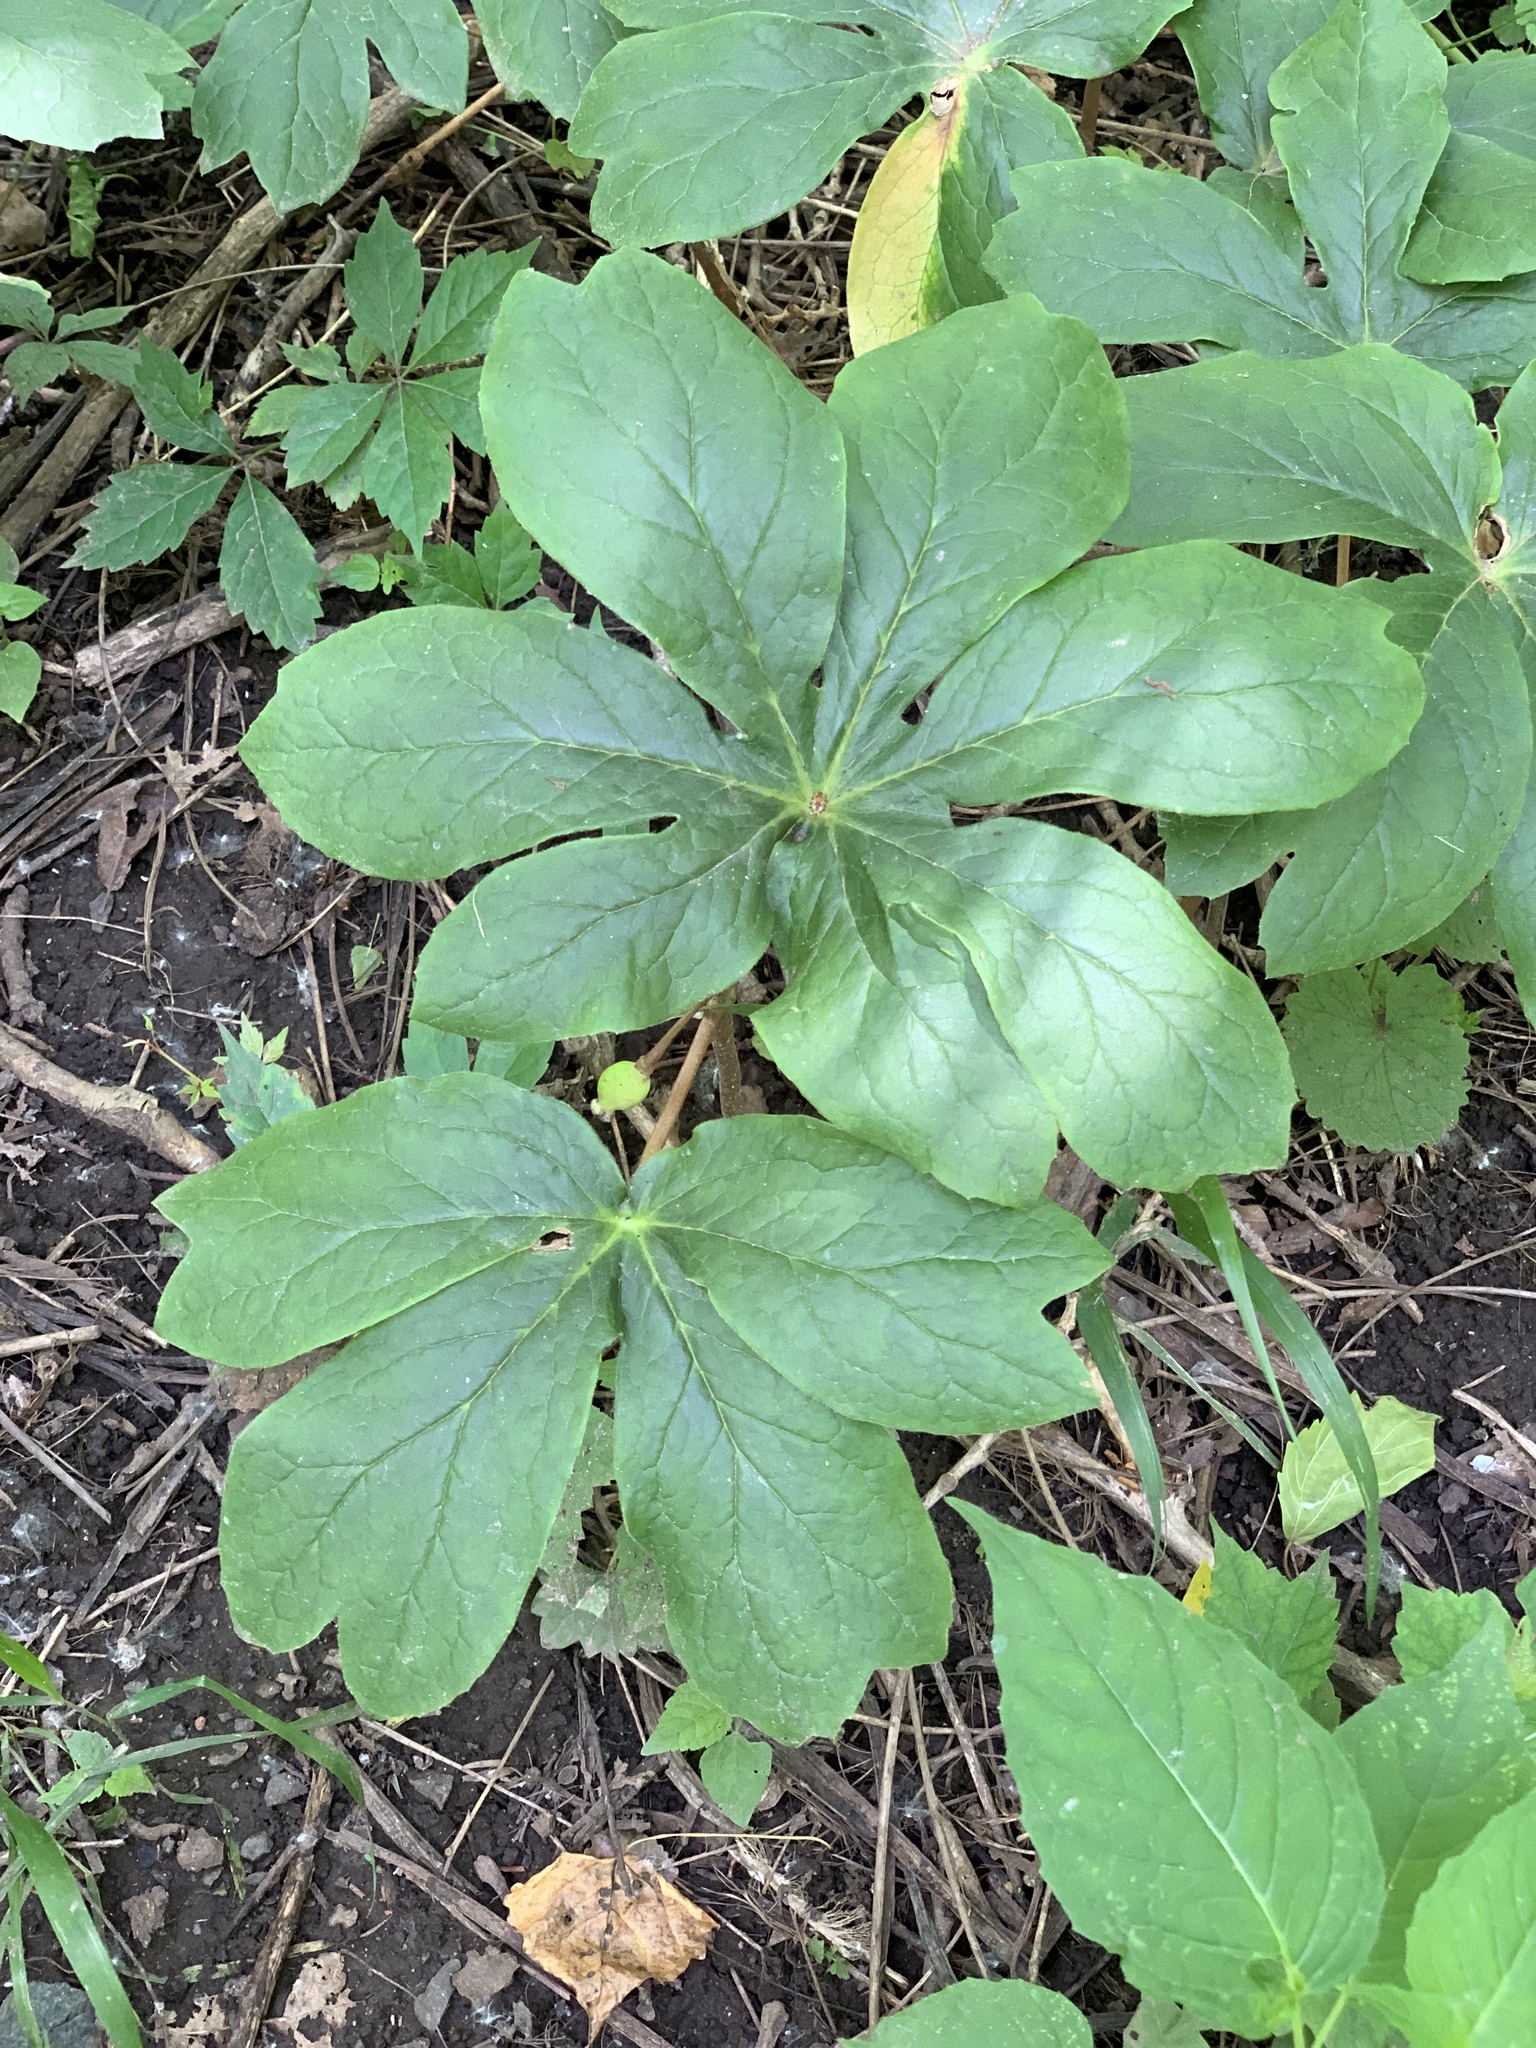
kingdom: Plantae
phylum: Tracheophyta
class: Magnoliopsida
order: Ranunculales
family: Berberidaceae
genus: Podophyllum
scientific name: Podophyllum peltatum
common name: Wild mandrake
